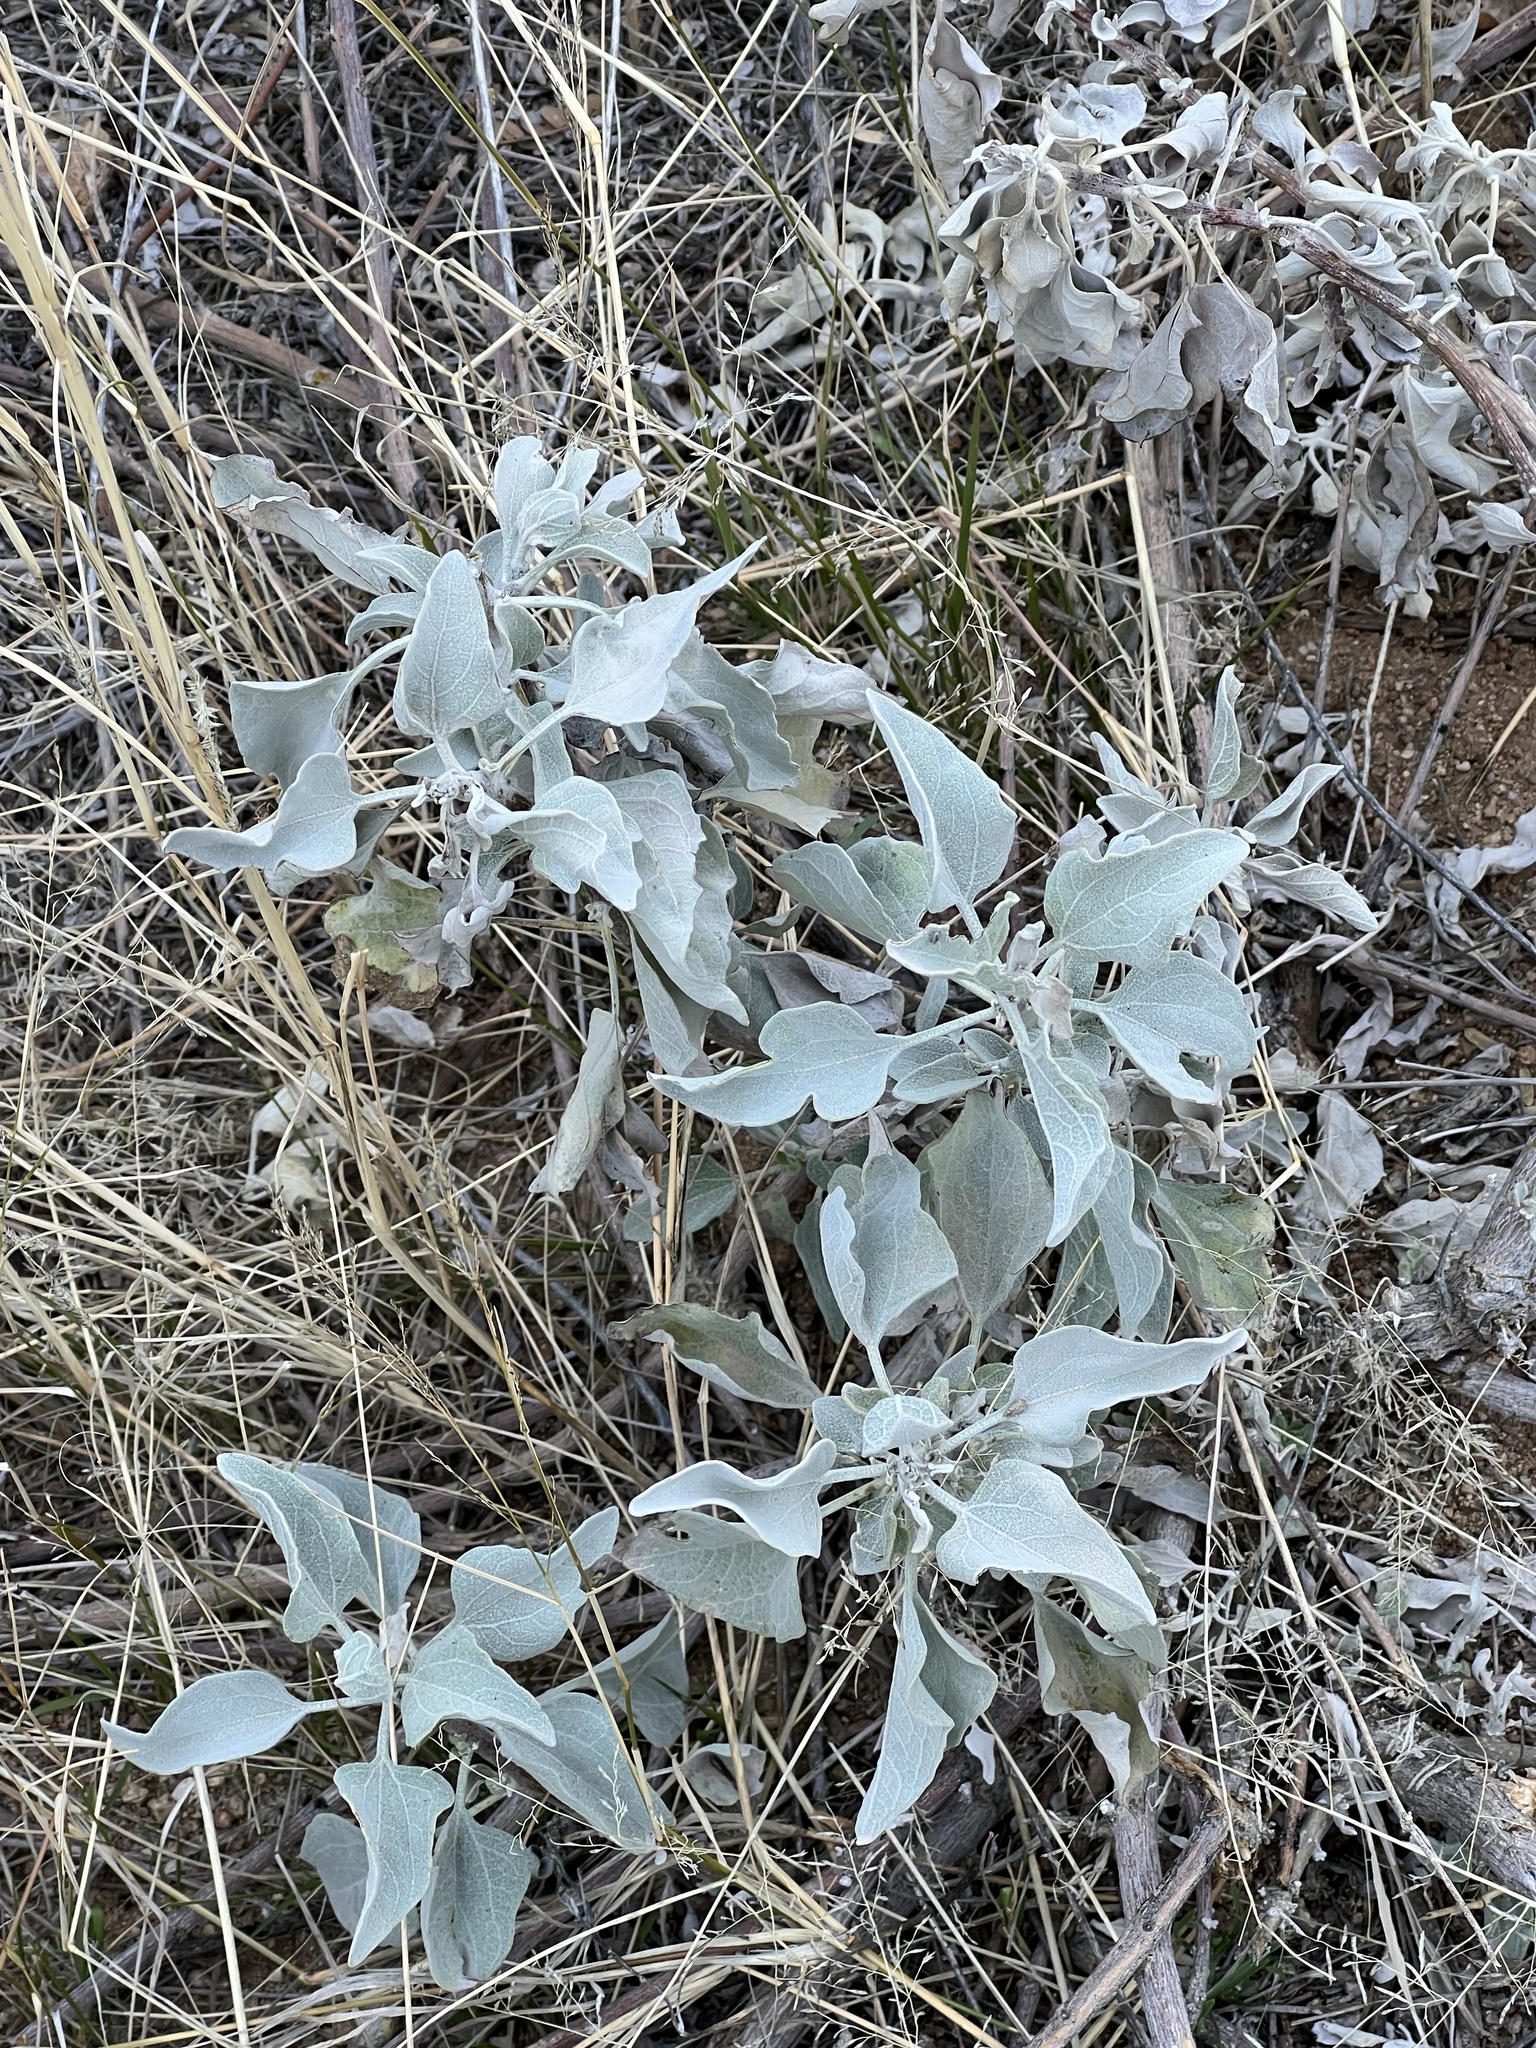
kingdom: Plantae
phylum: Tracheophyta
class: Magnoliopsida
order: Asterales
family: Asteraceae
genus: Encelia
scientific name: Encelia farinosa
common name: Brittlebush
